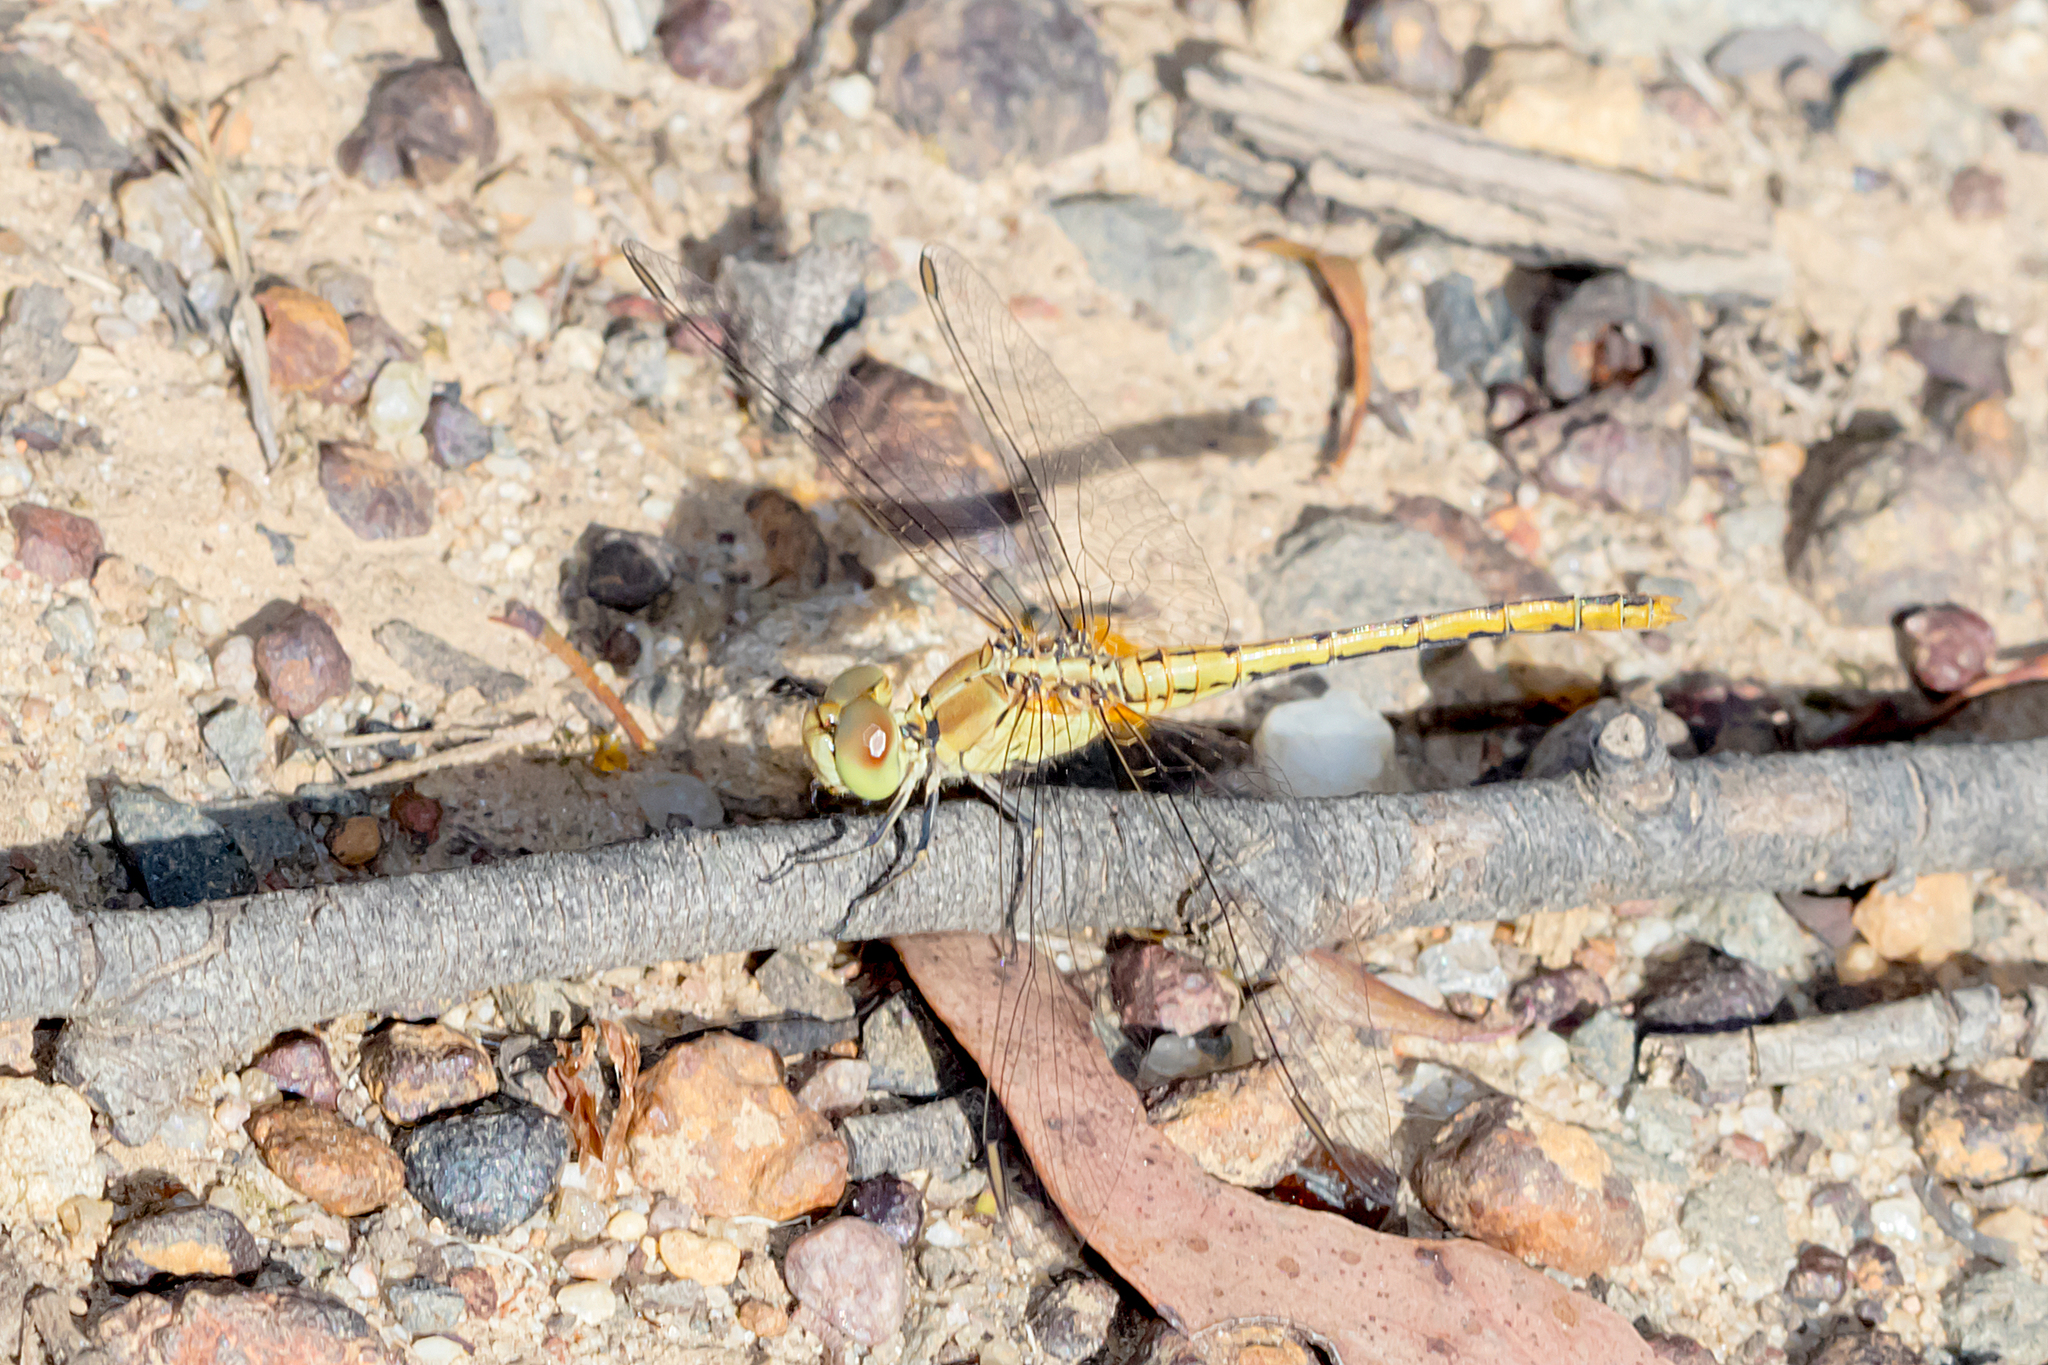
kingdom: Animalia
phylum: Arthropoda
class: Insecta
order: Odonata
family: Libellulidae
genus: Diplacodes
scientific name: Diplacodes bipunctata
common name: Red percher dragonfly
